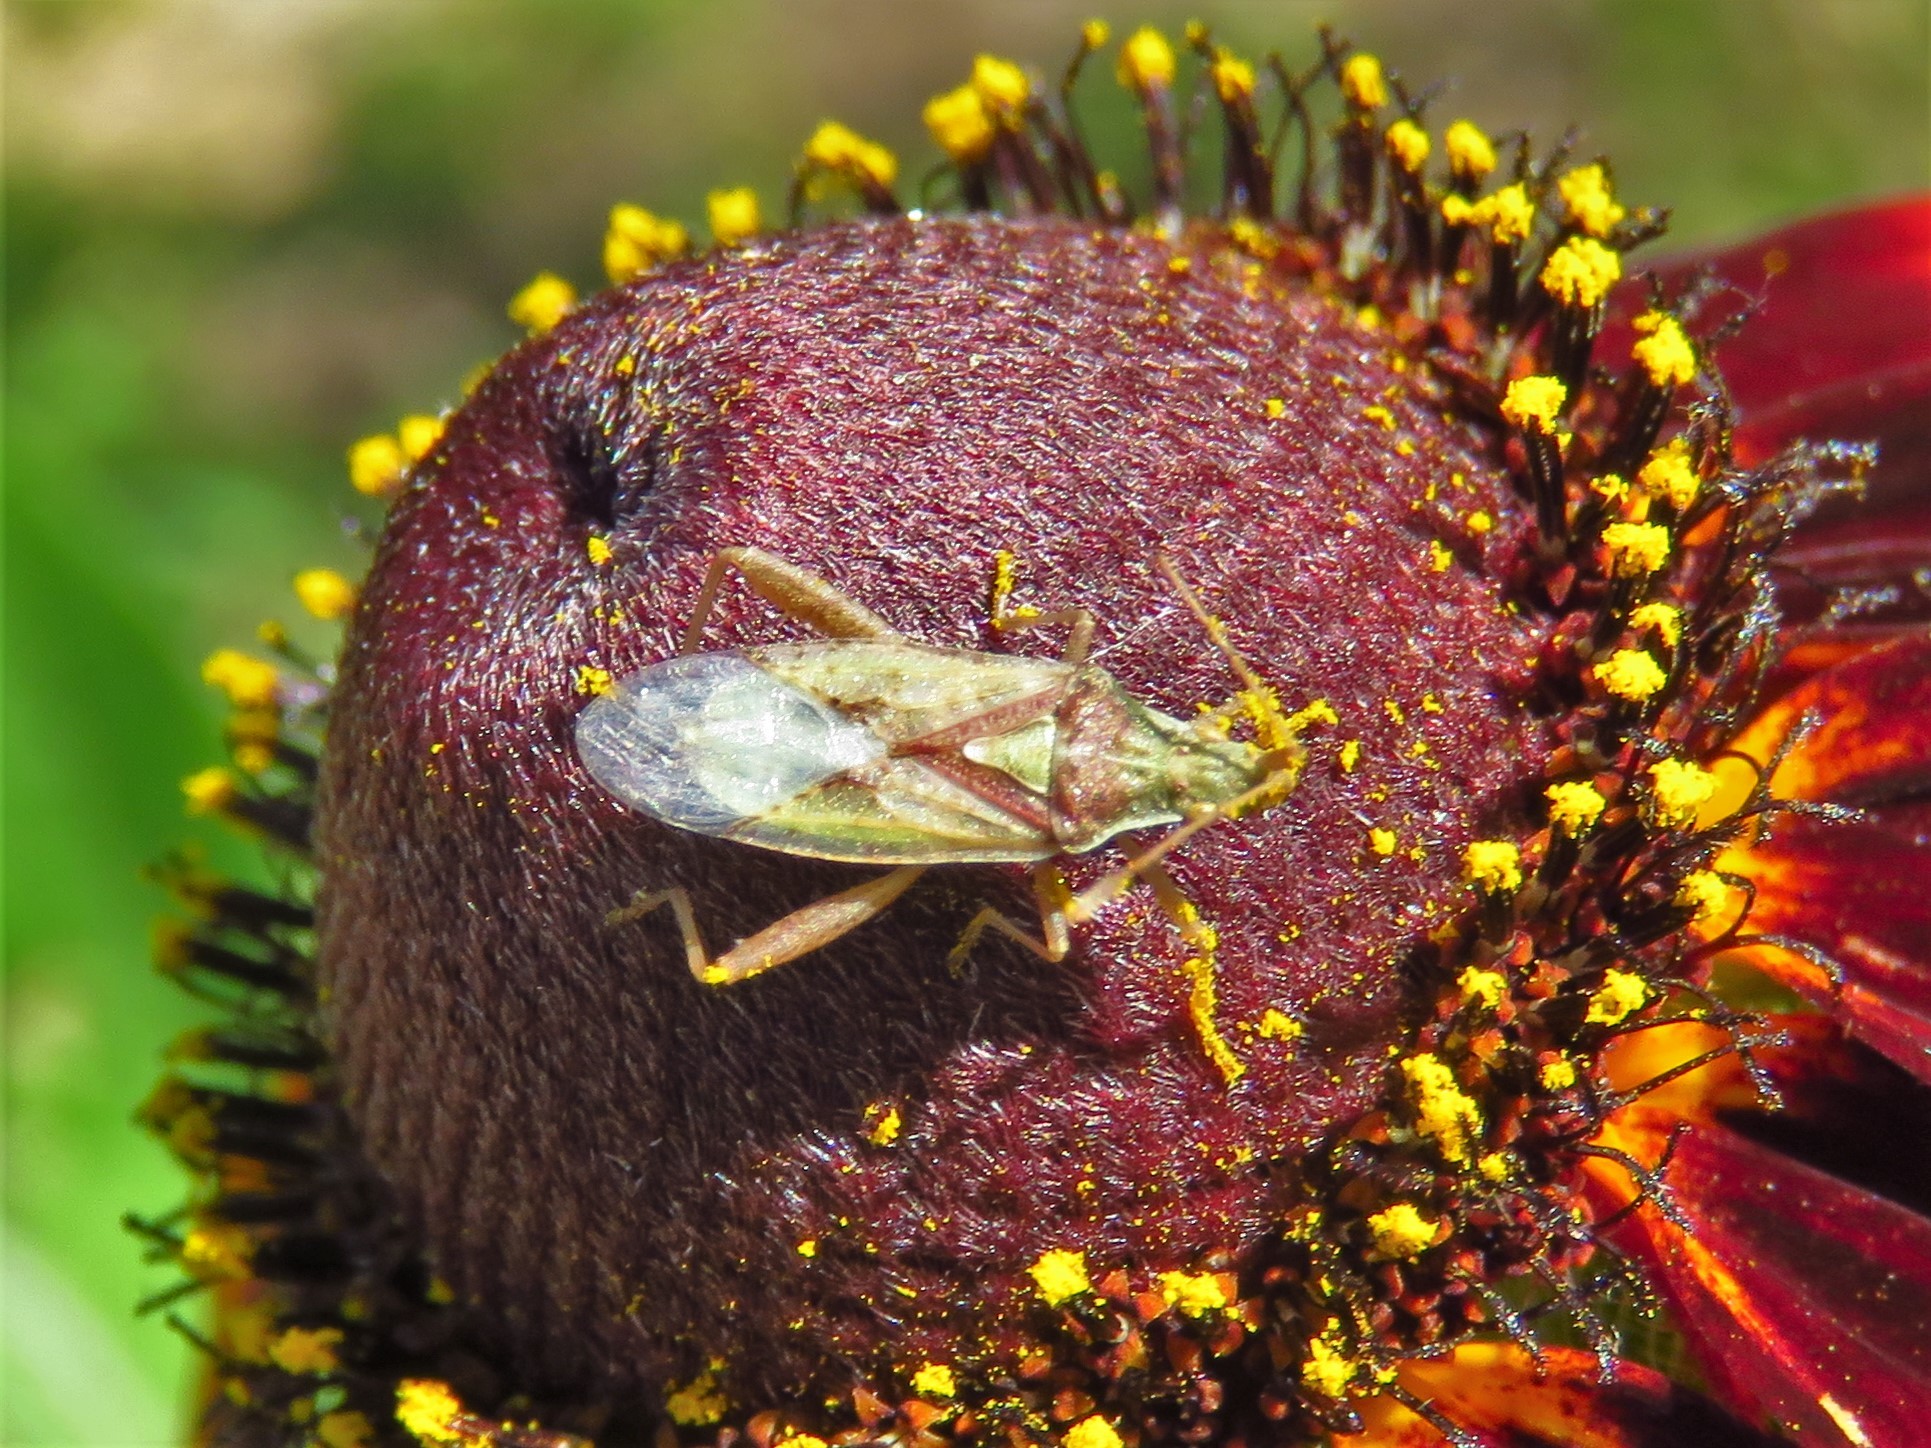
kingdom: Animalia
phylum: Arthropoda
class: Insecta
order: Hemiptera
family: Rhopalidae
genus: Harmostes
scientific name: Harmostes reflexulus
